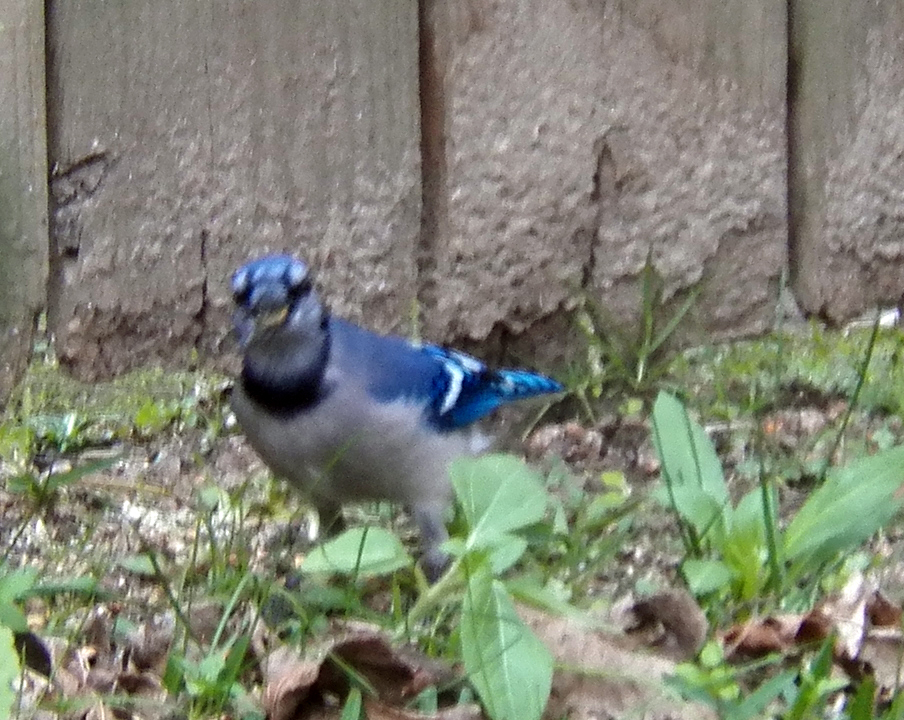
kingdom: Animalia
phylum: Chordata
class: Aves
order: Passeriformes
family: Corvidae
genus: Cyanocitta
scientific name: Cyanocitta cristata
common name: Blue jay
